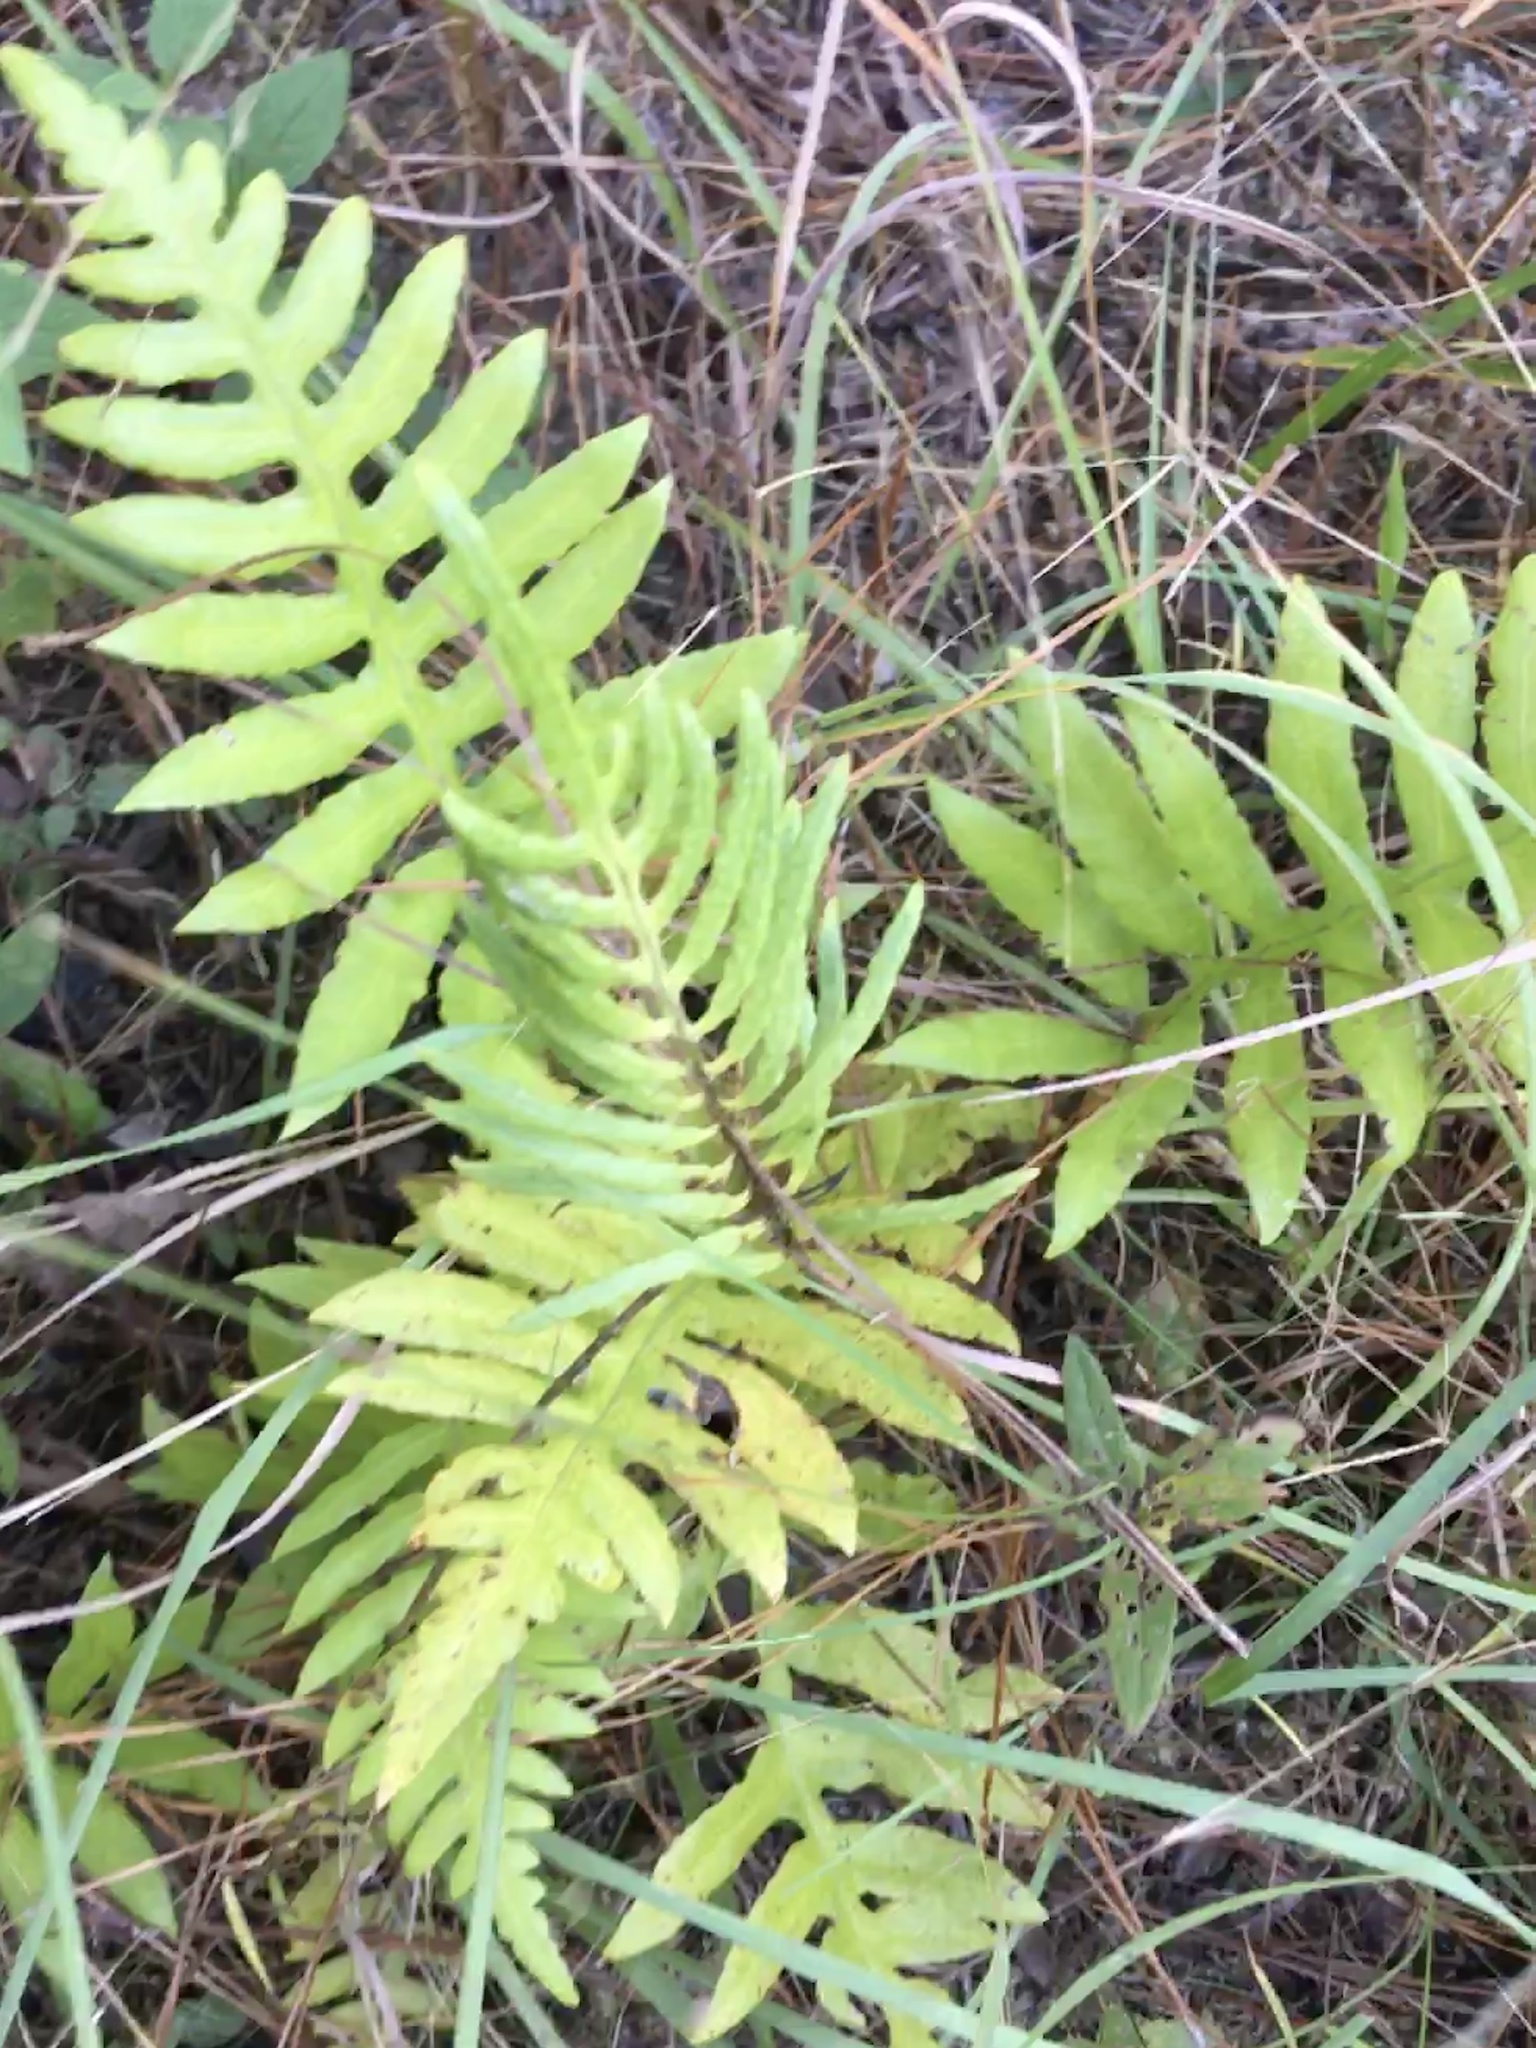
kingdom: Plantae
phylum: Tracheophyta
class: Polypodiopsida
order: Polypodiales
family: Blechnaceae
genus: Lorinseria
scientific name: Lorinseria areolata
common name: Dwarf chain fern
